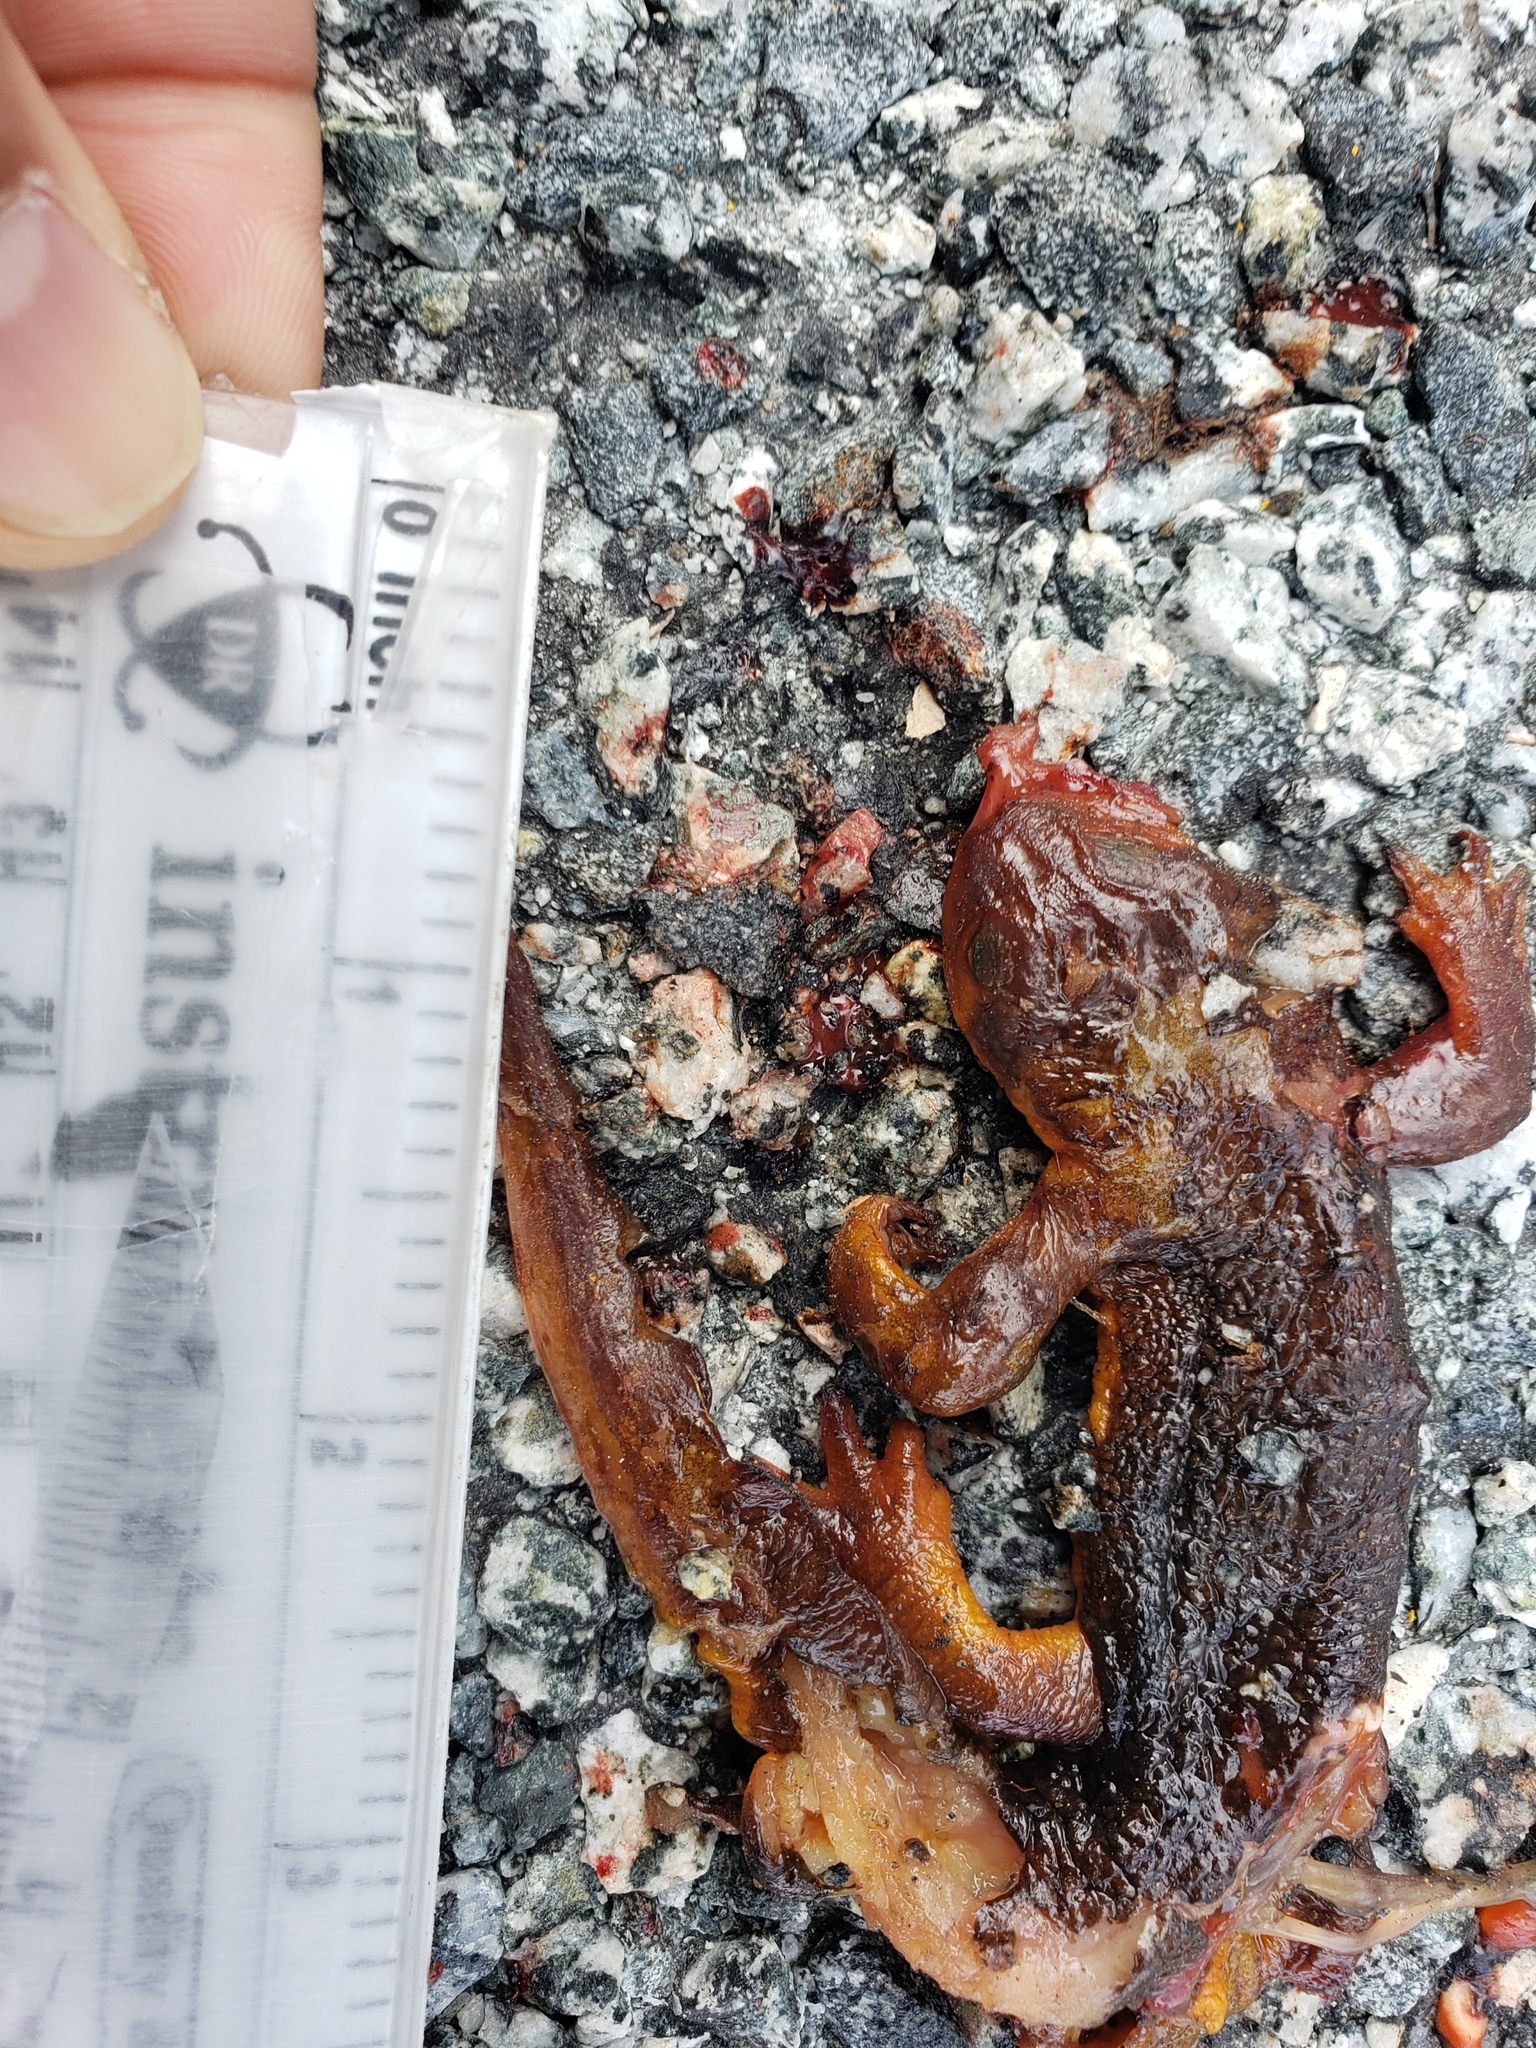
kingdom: Animalia
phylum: Chordata
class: Amphibia
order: Caudata
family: Salamandridae
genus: Taricha
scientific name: Taricha
